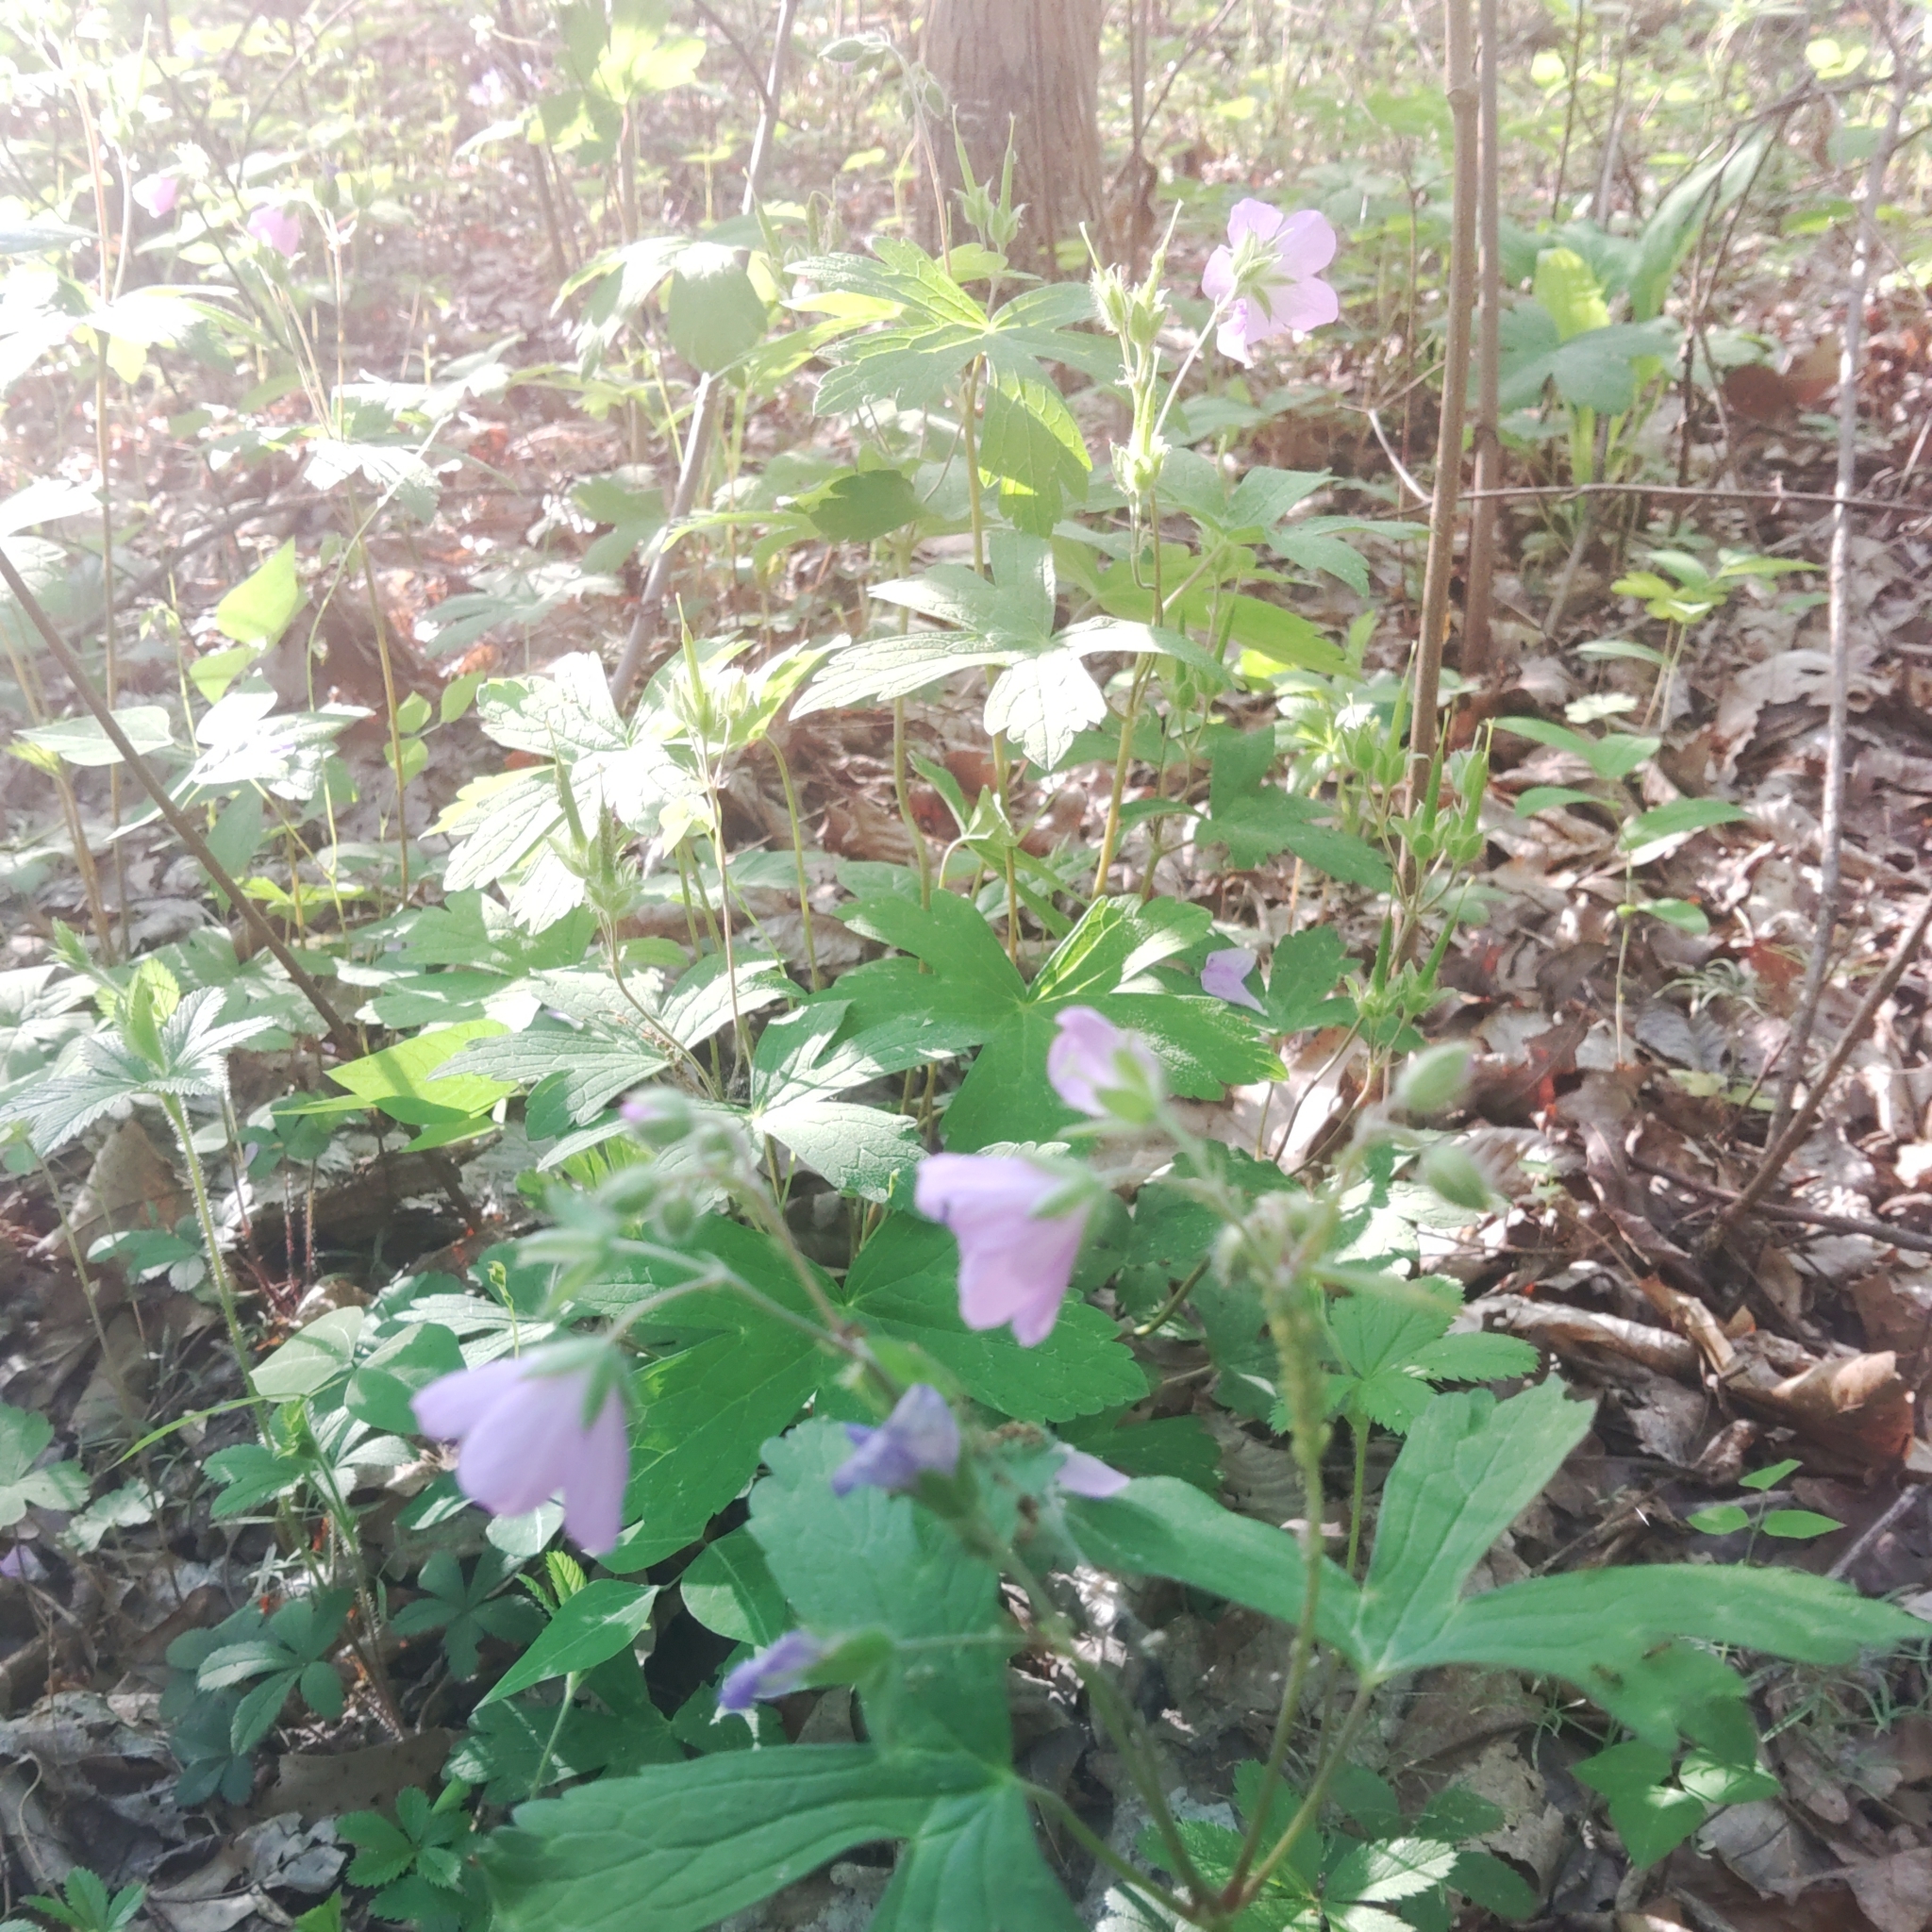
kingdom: Plantae
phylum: Tracheophyta
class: Magnoliopsida
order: Geraniales
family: Geraniaceae
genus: Geranium
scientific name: Geranium maculatum
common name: Spotted geranium
